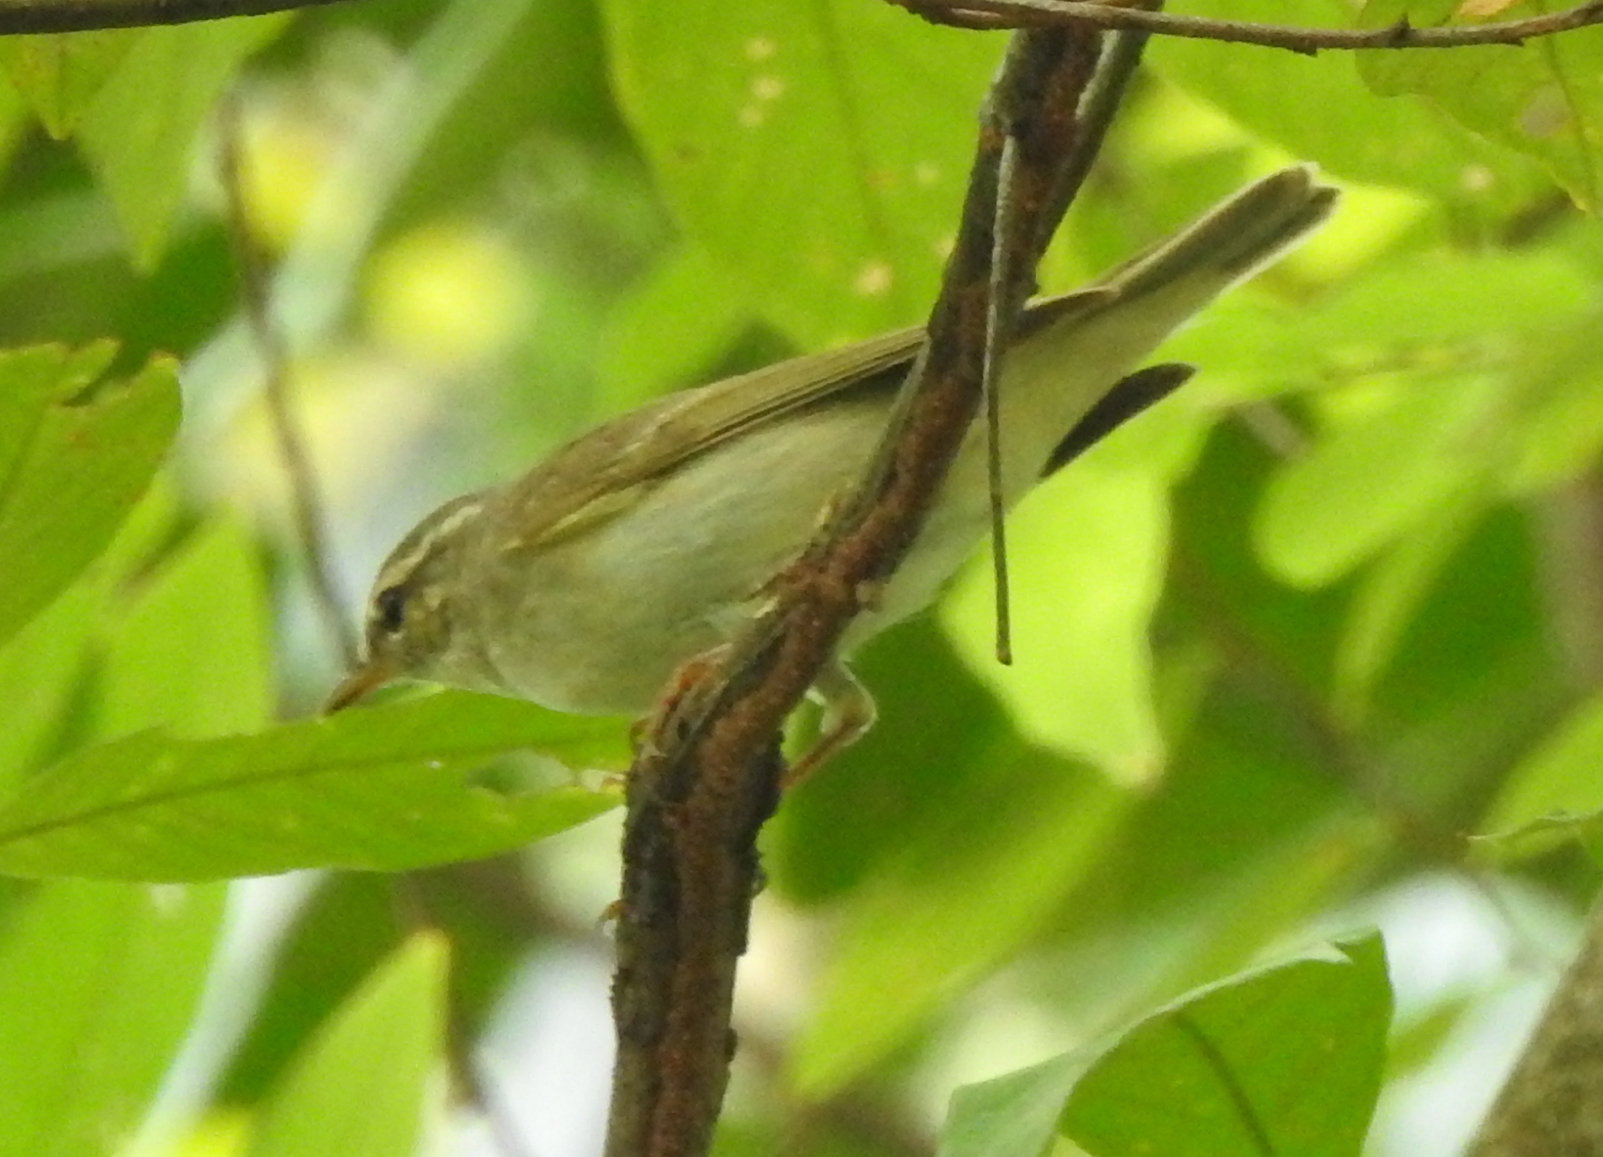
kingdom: Animalia
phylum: Chordata
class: Aves
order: Passeriformes
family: Phylloscopidae
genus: Phylloscopus
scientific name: Phylloscopus borealis
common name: Arctic warbler
